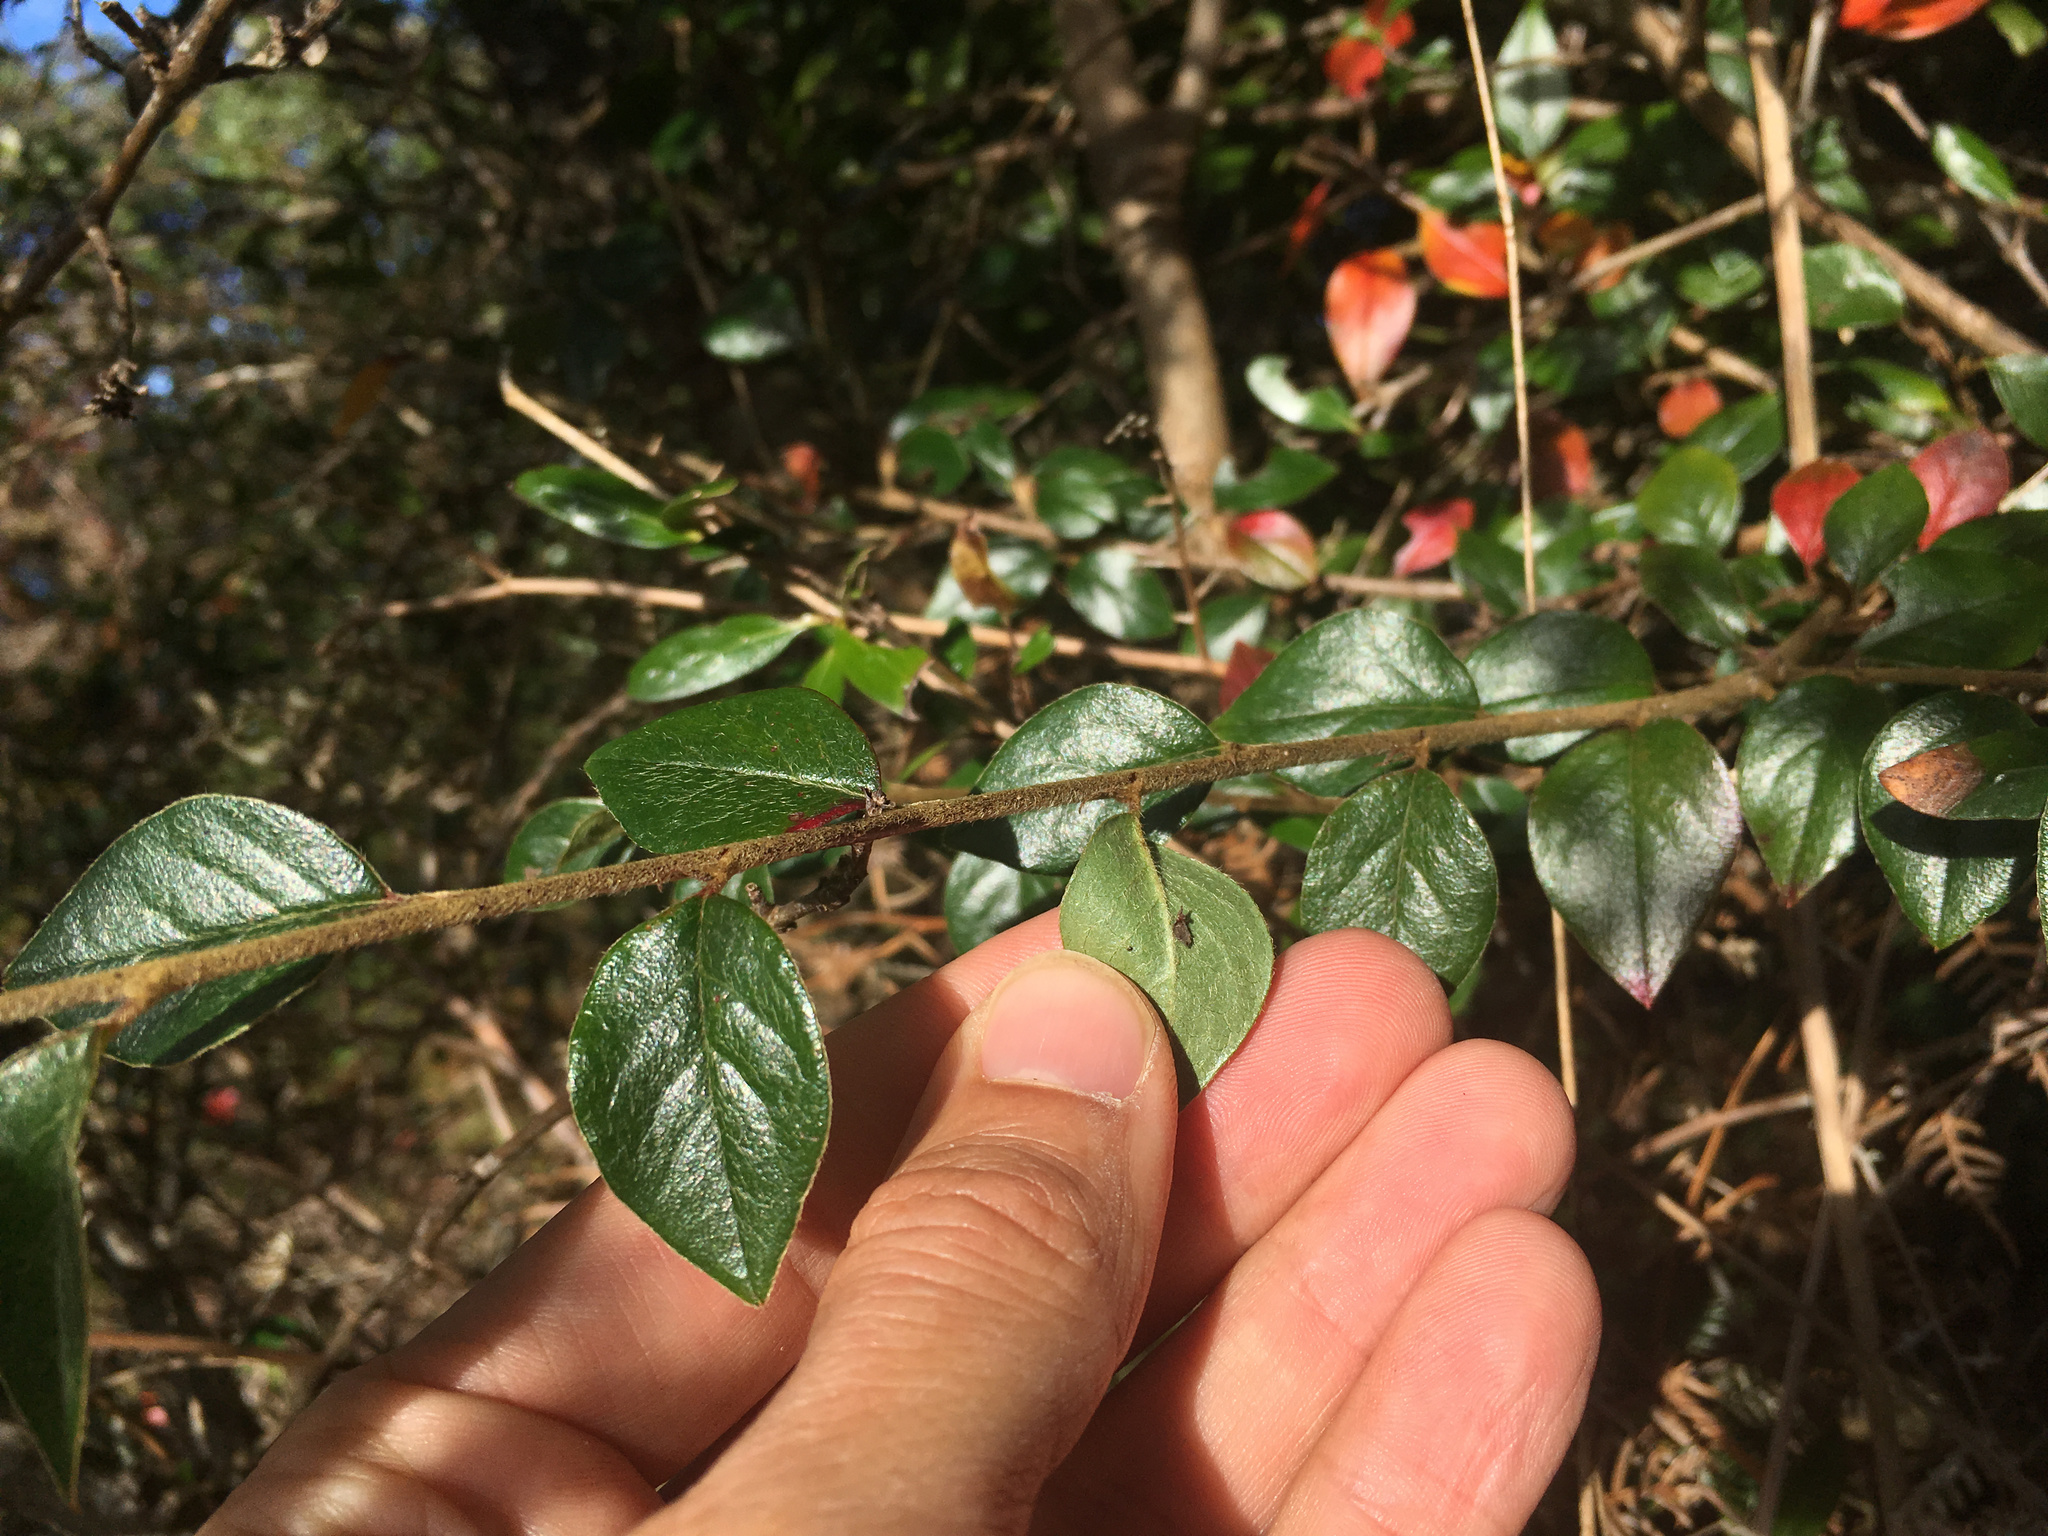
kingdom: Plantae
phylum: Tracheophyta
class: Magnoliopsida
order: Rosales
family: Rosaceae
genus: Cotoneaster
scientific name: Cotoneaster simonsii
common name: Himalayan cotoneaster
